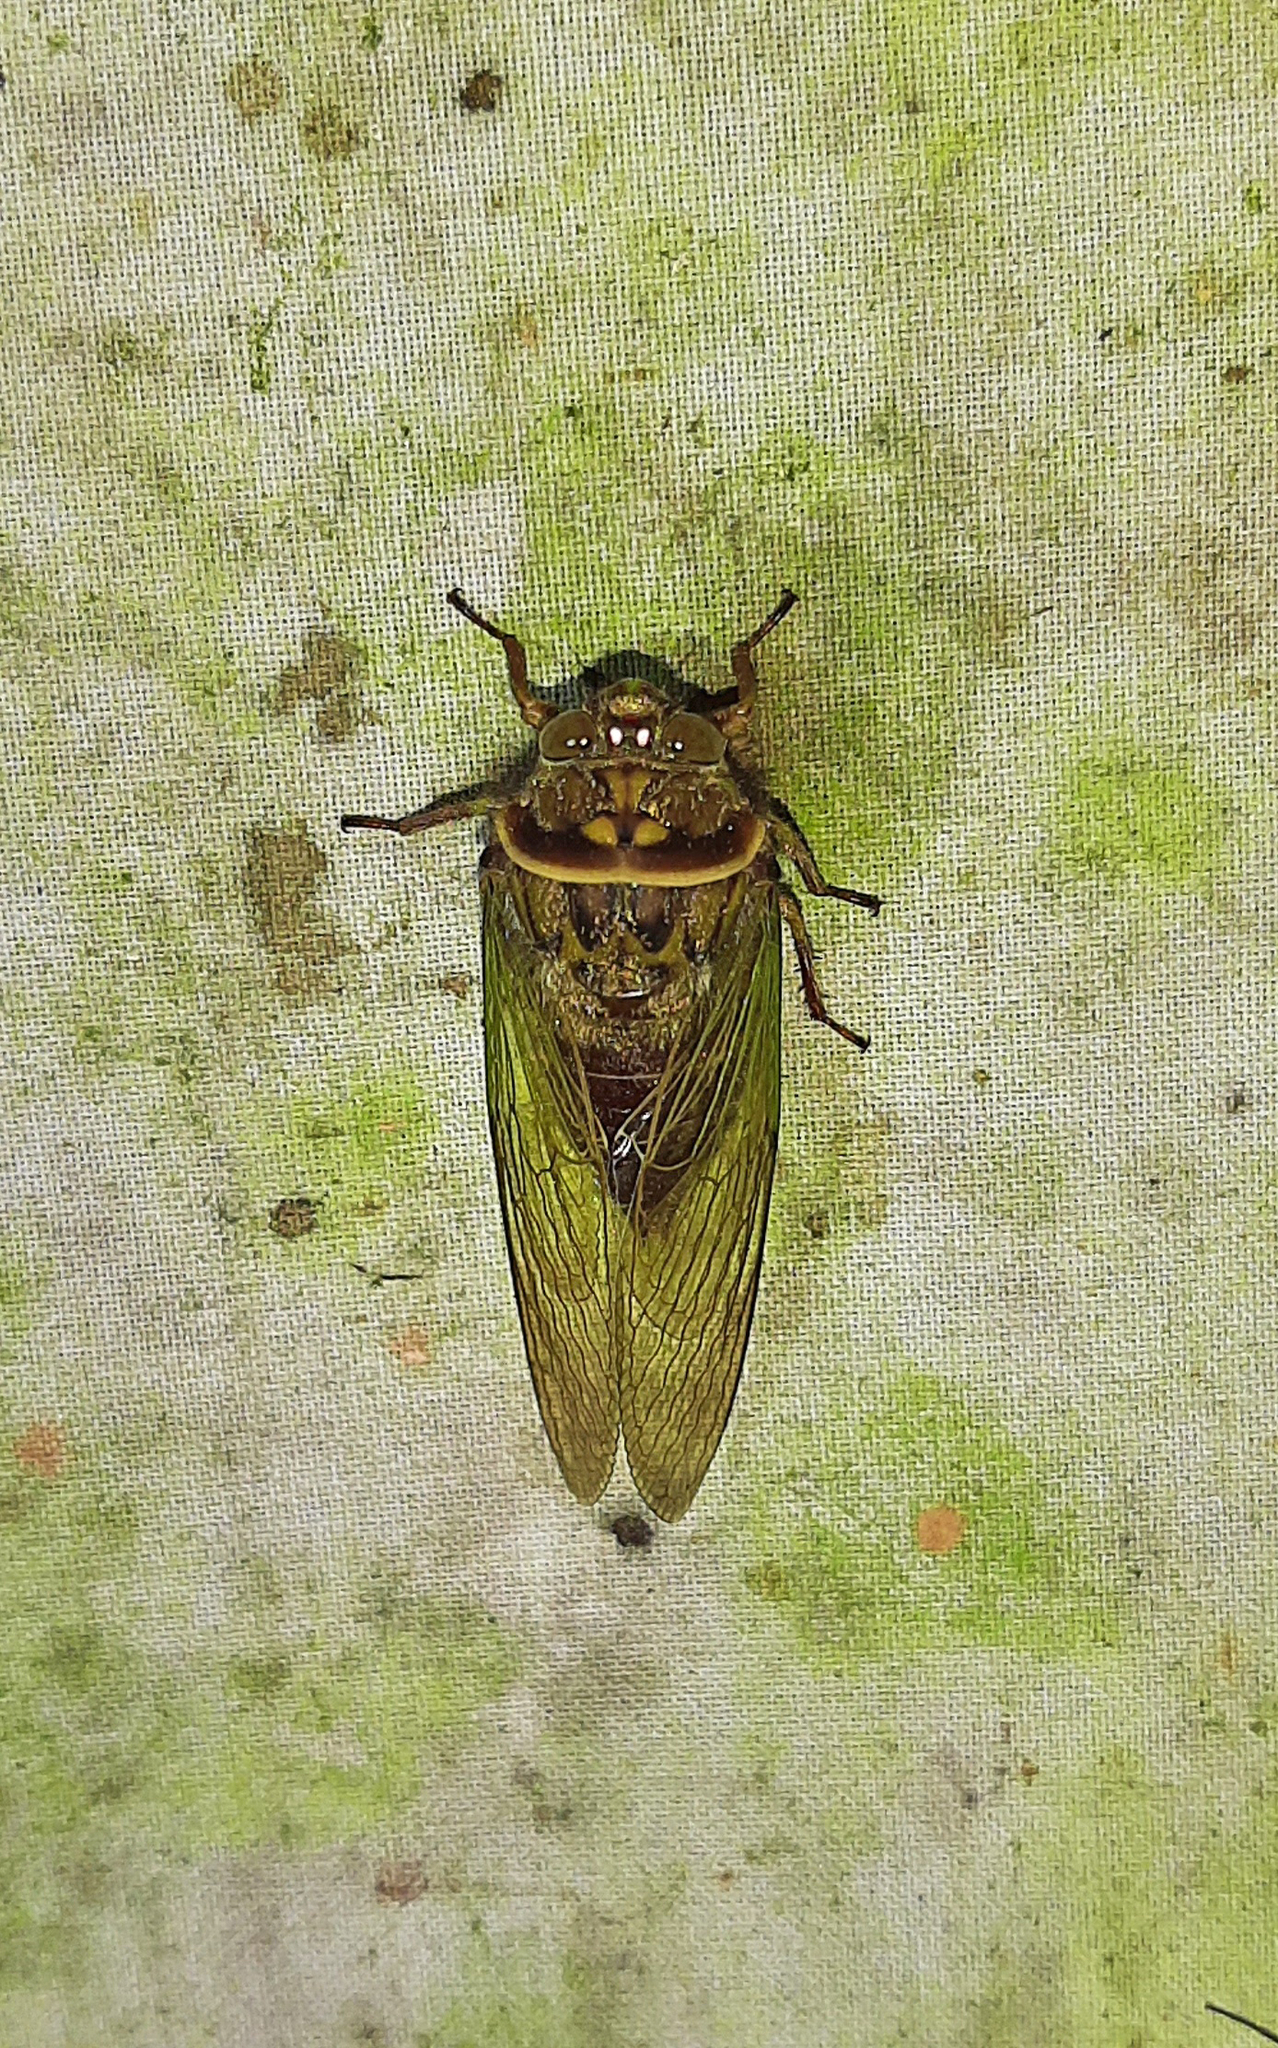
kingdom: Animalia
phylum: Arthropoda
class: Insecta
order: Hemiptera
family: Cicadidae
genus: Carineta
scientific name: Carineta bitorquata
